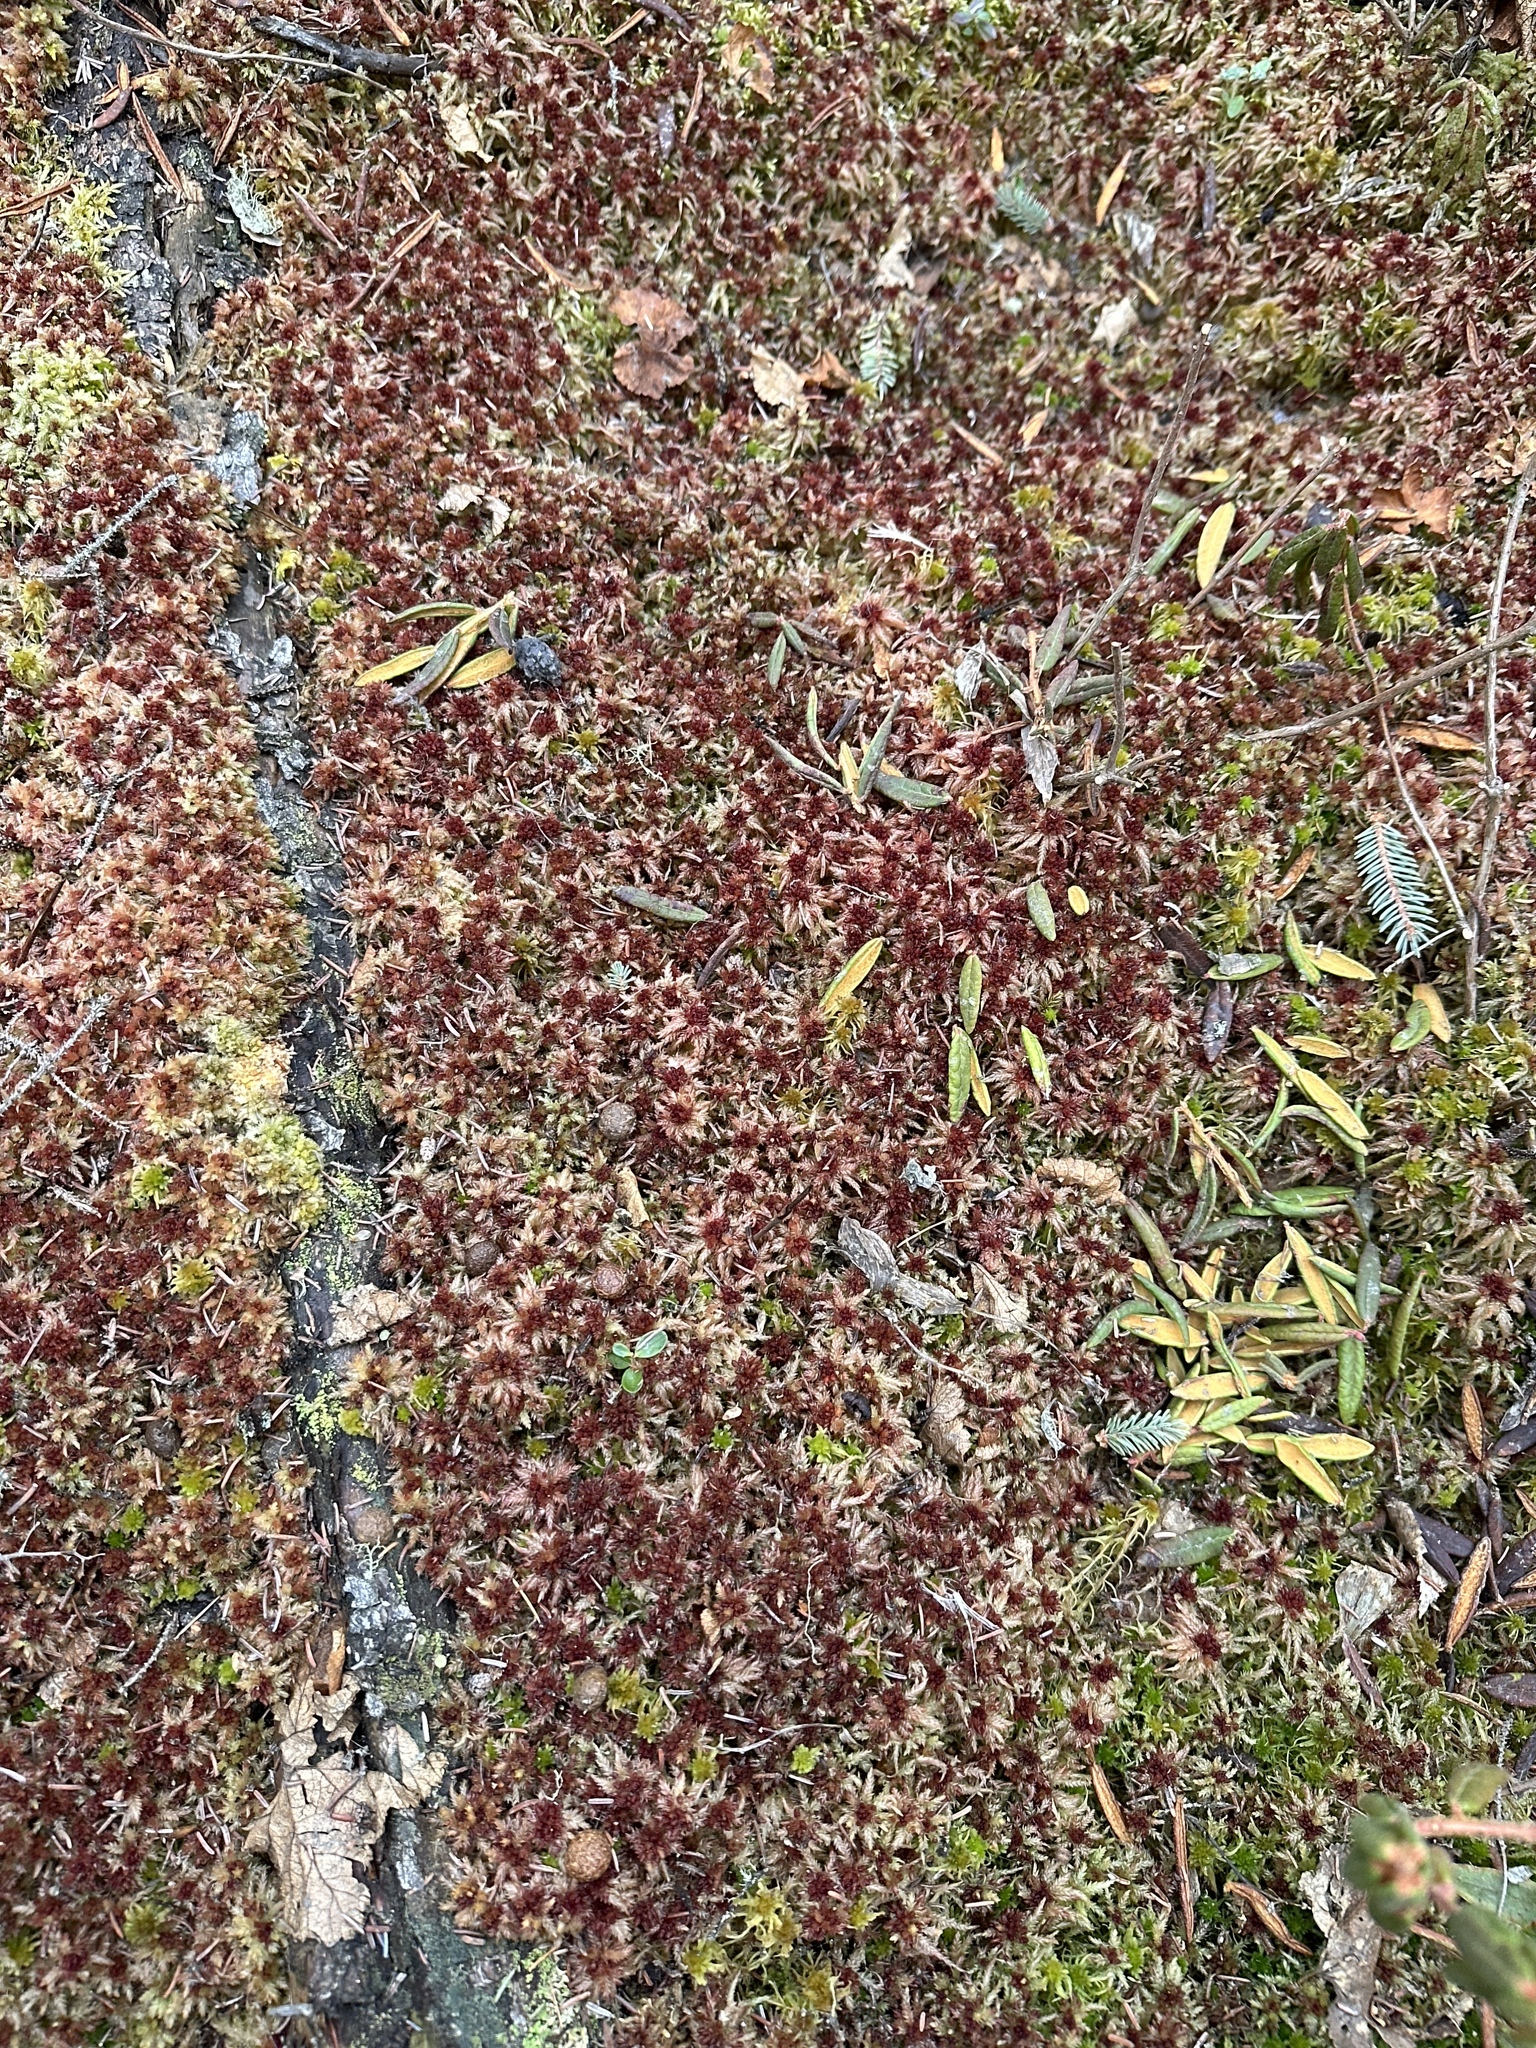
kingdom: Plantae
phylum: Bryophyta
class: Sphagnopsida
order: Sphagnales
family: Sphagnaceae
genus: Sphagnum
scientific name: Sphagnum divinum
